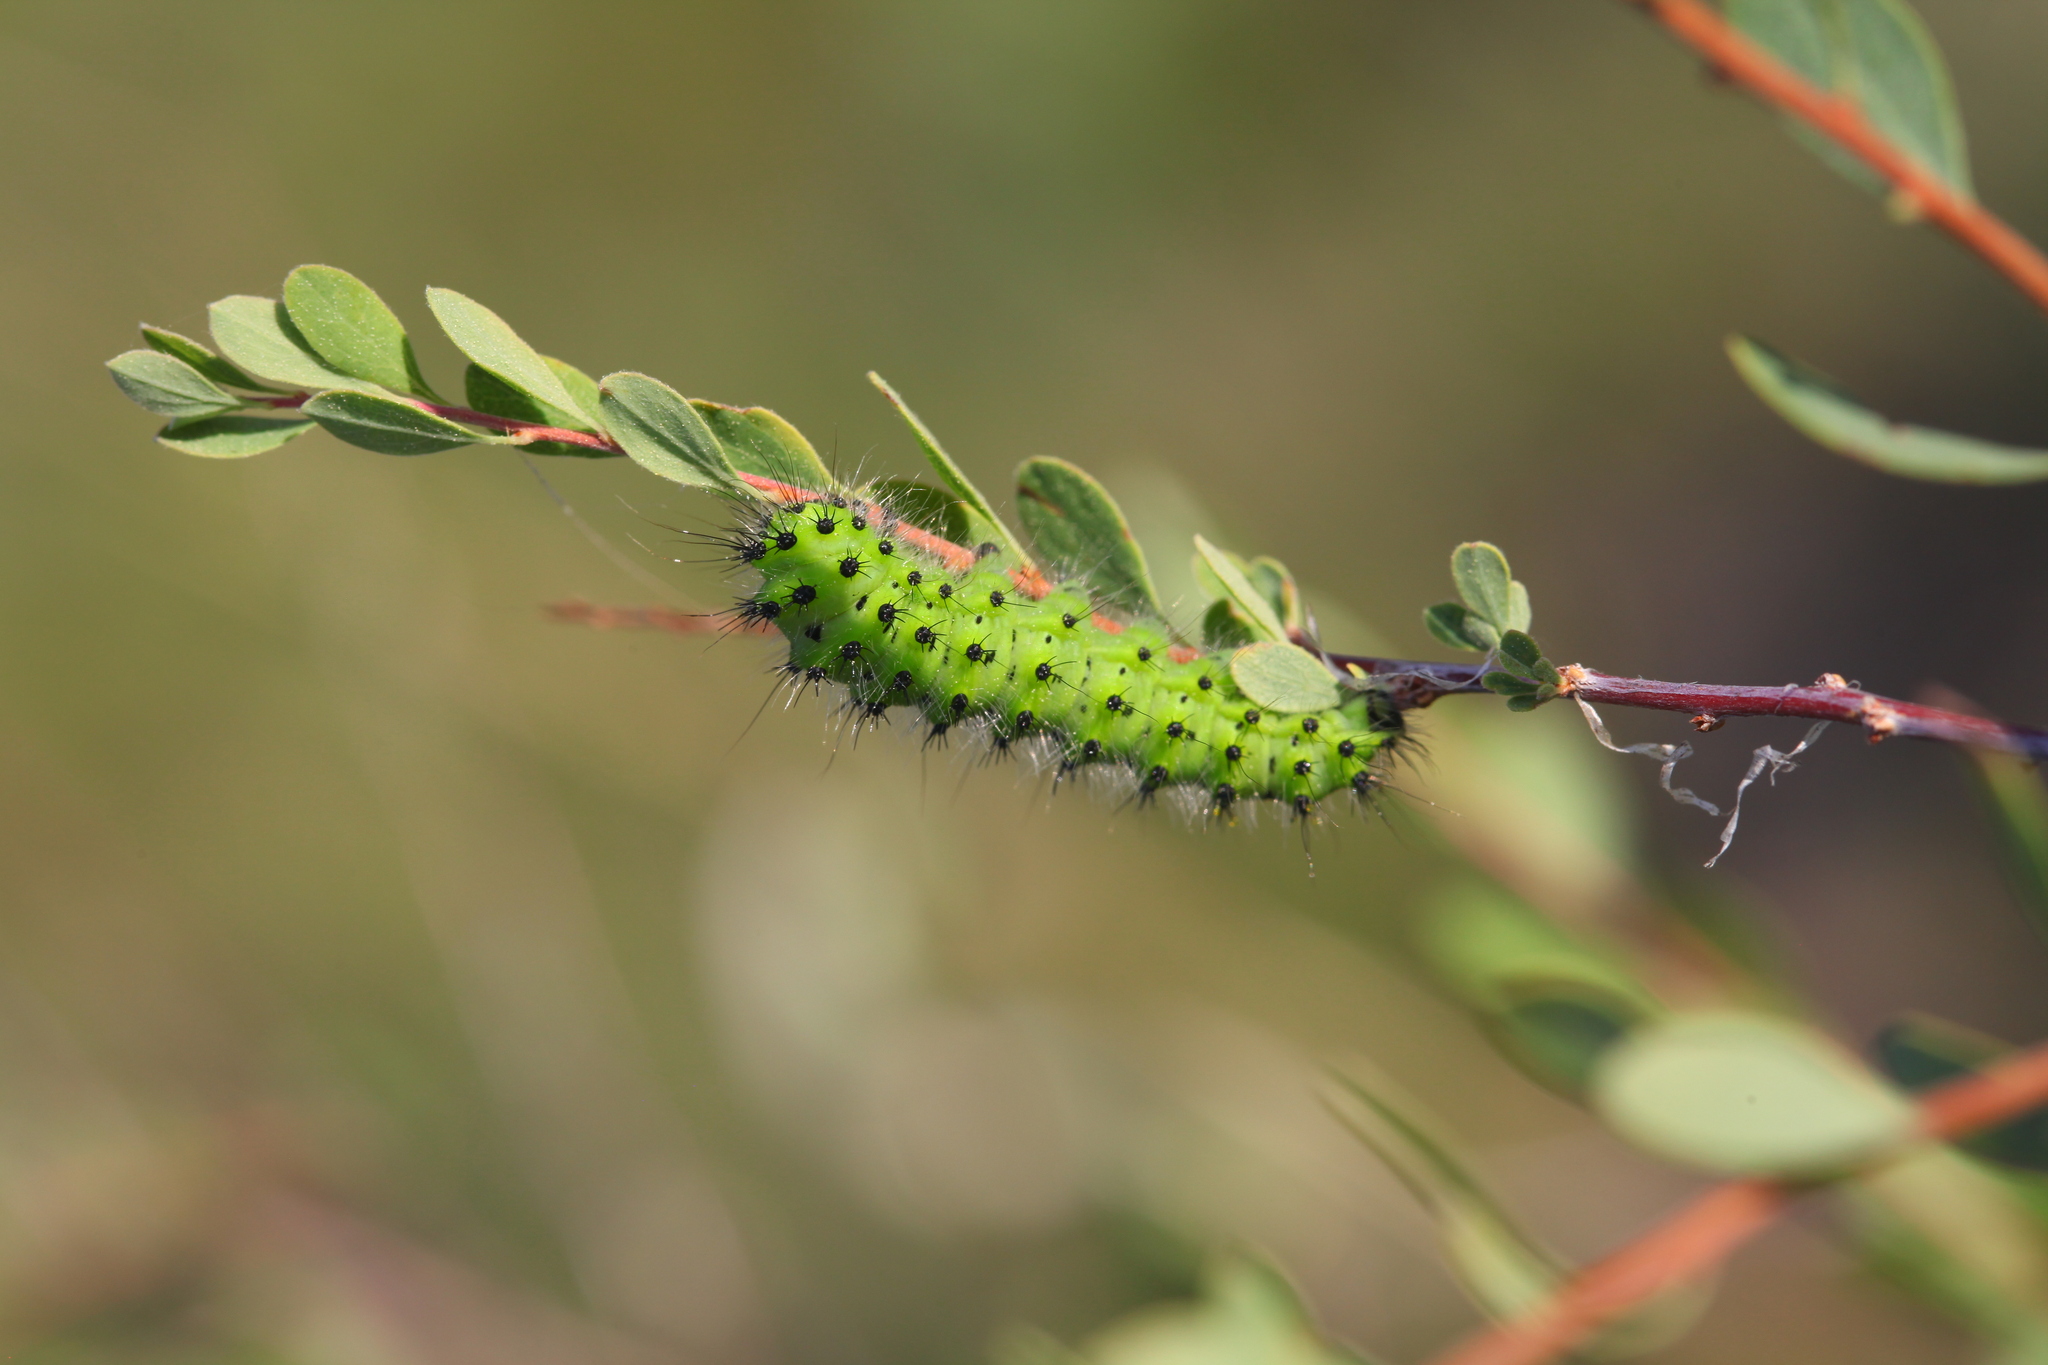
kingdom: Animalia
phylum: Arthropoda
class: Insecta
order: Lepidoptera
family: Saturniidae
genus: Saturnia
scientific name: Saturnia pavonia
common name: Emperor moth
